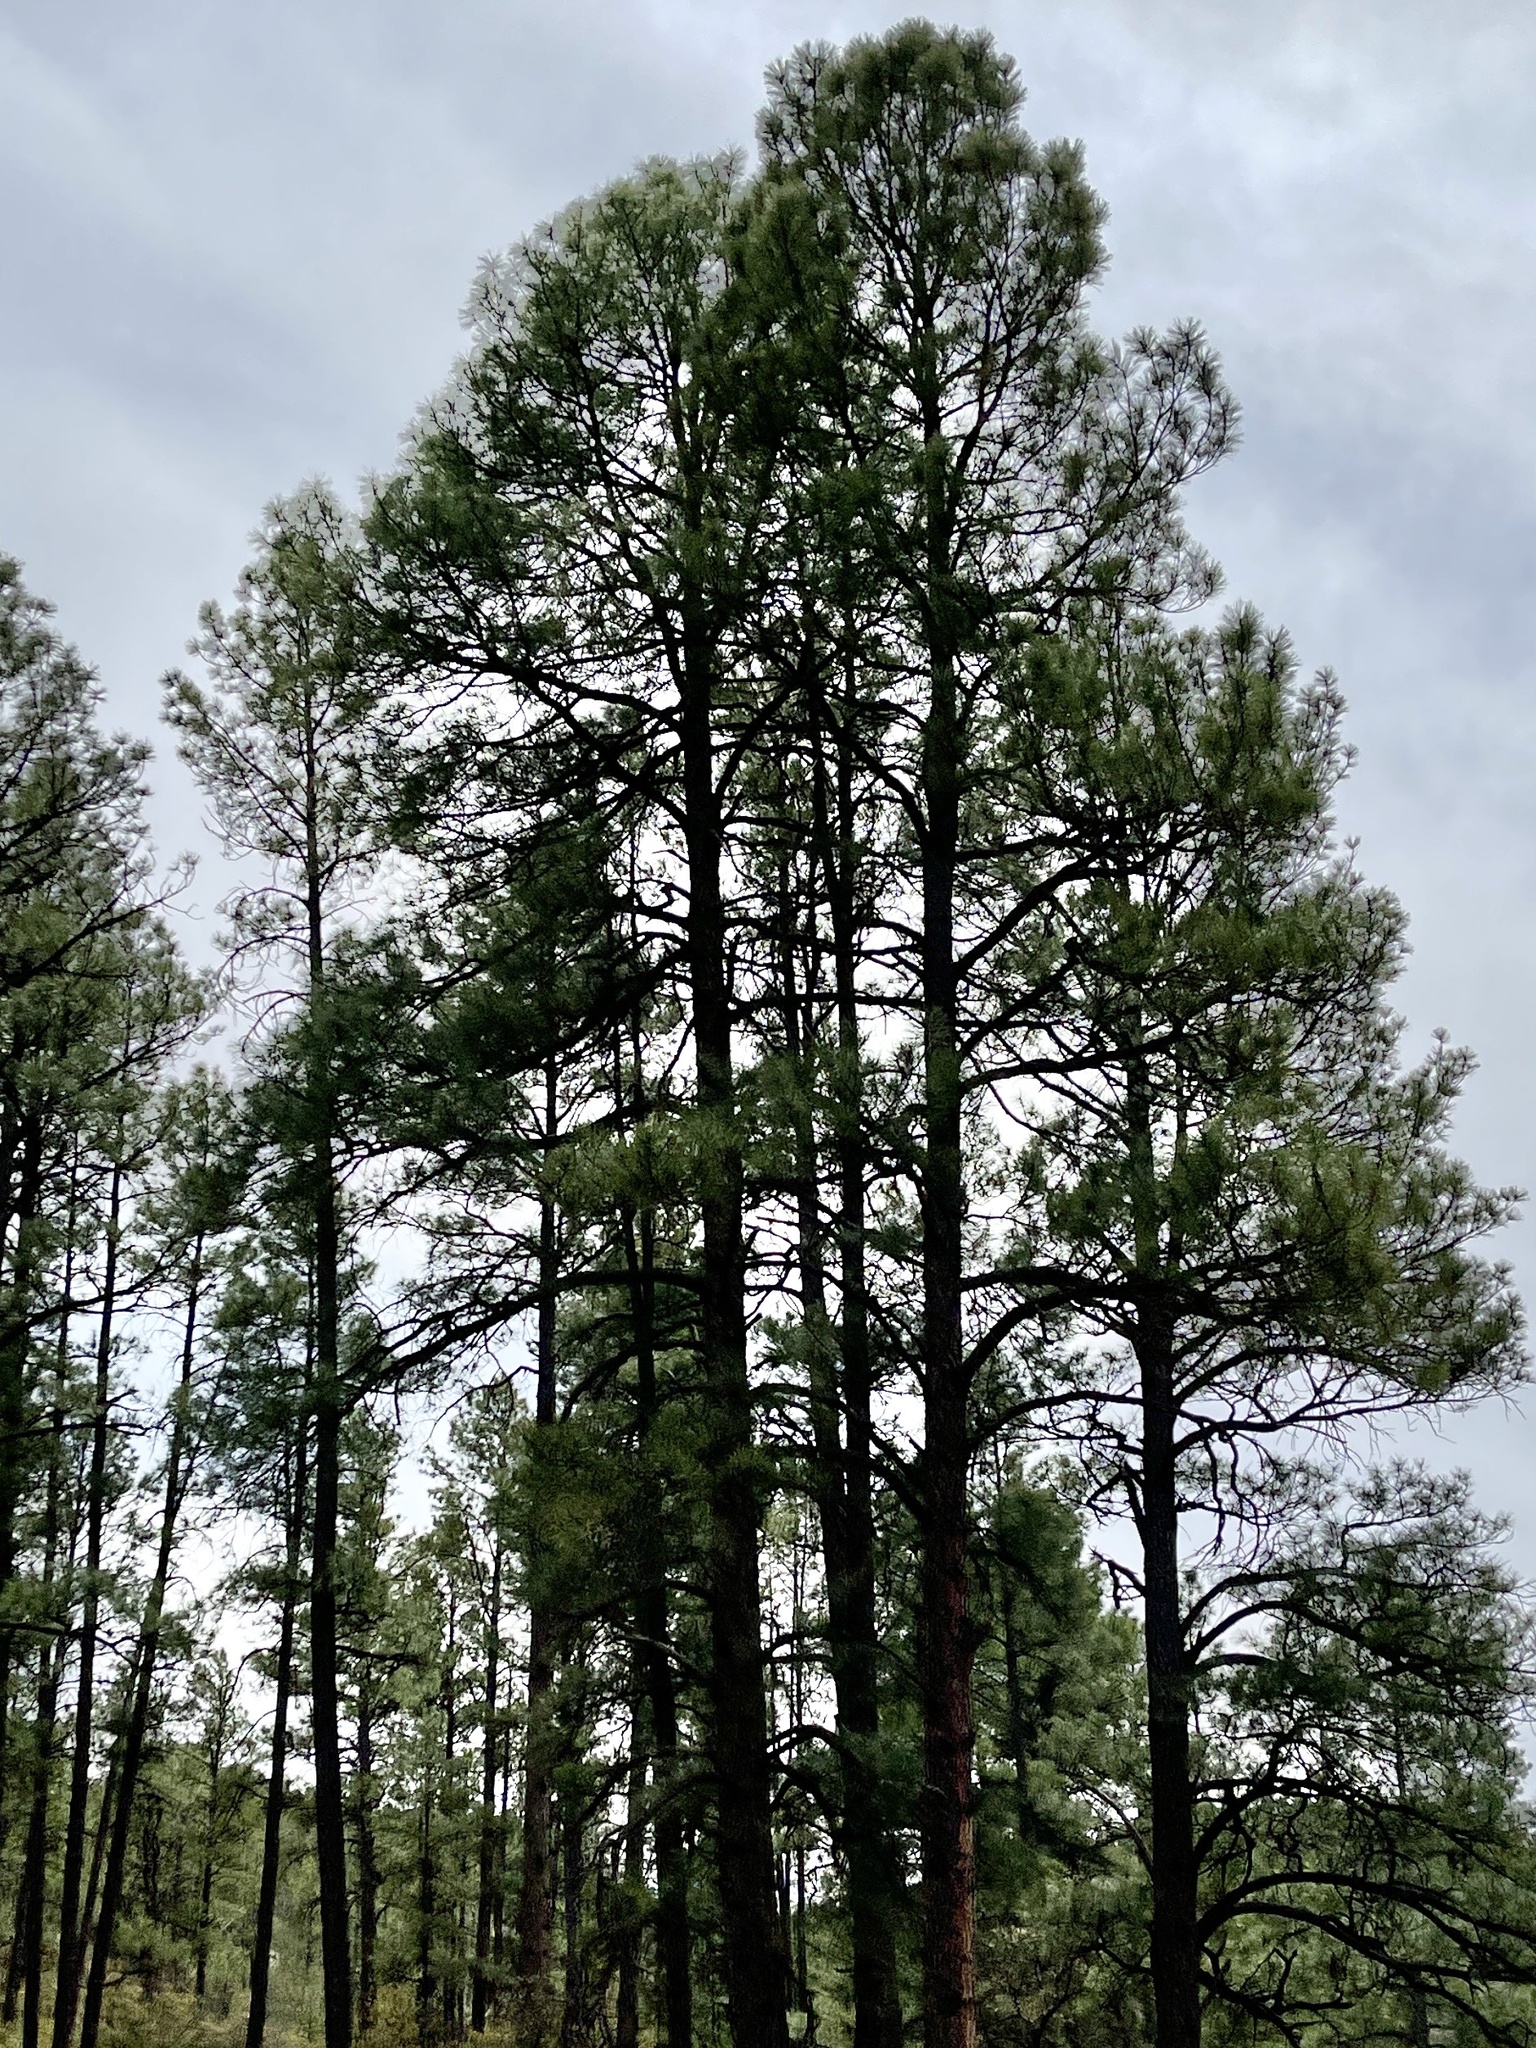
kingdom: Plantae
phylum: Tracheophyta
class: Pinopsida
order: Pinales
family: Pinaceae
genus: Pinus
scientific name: Pinus ponderosa
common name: Western yellow-pine
